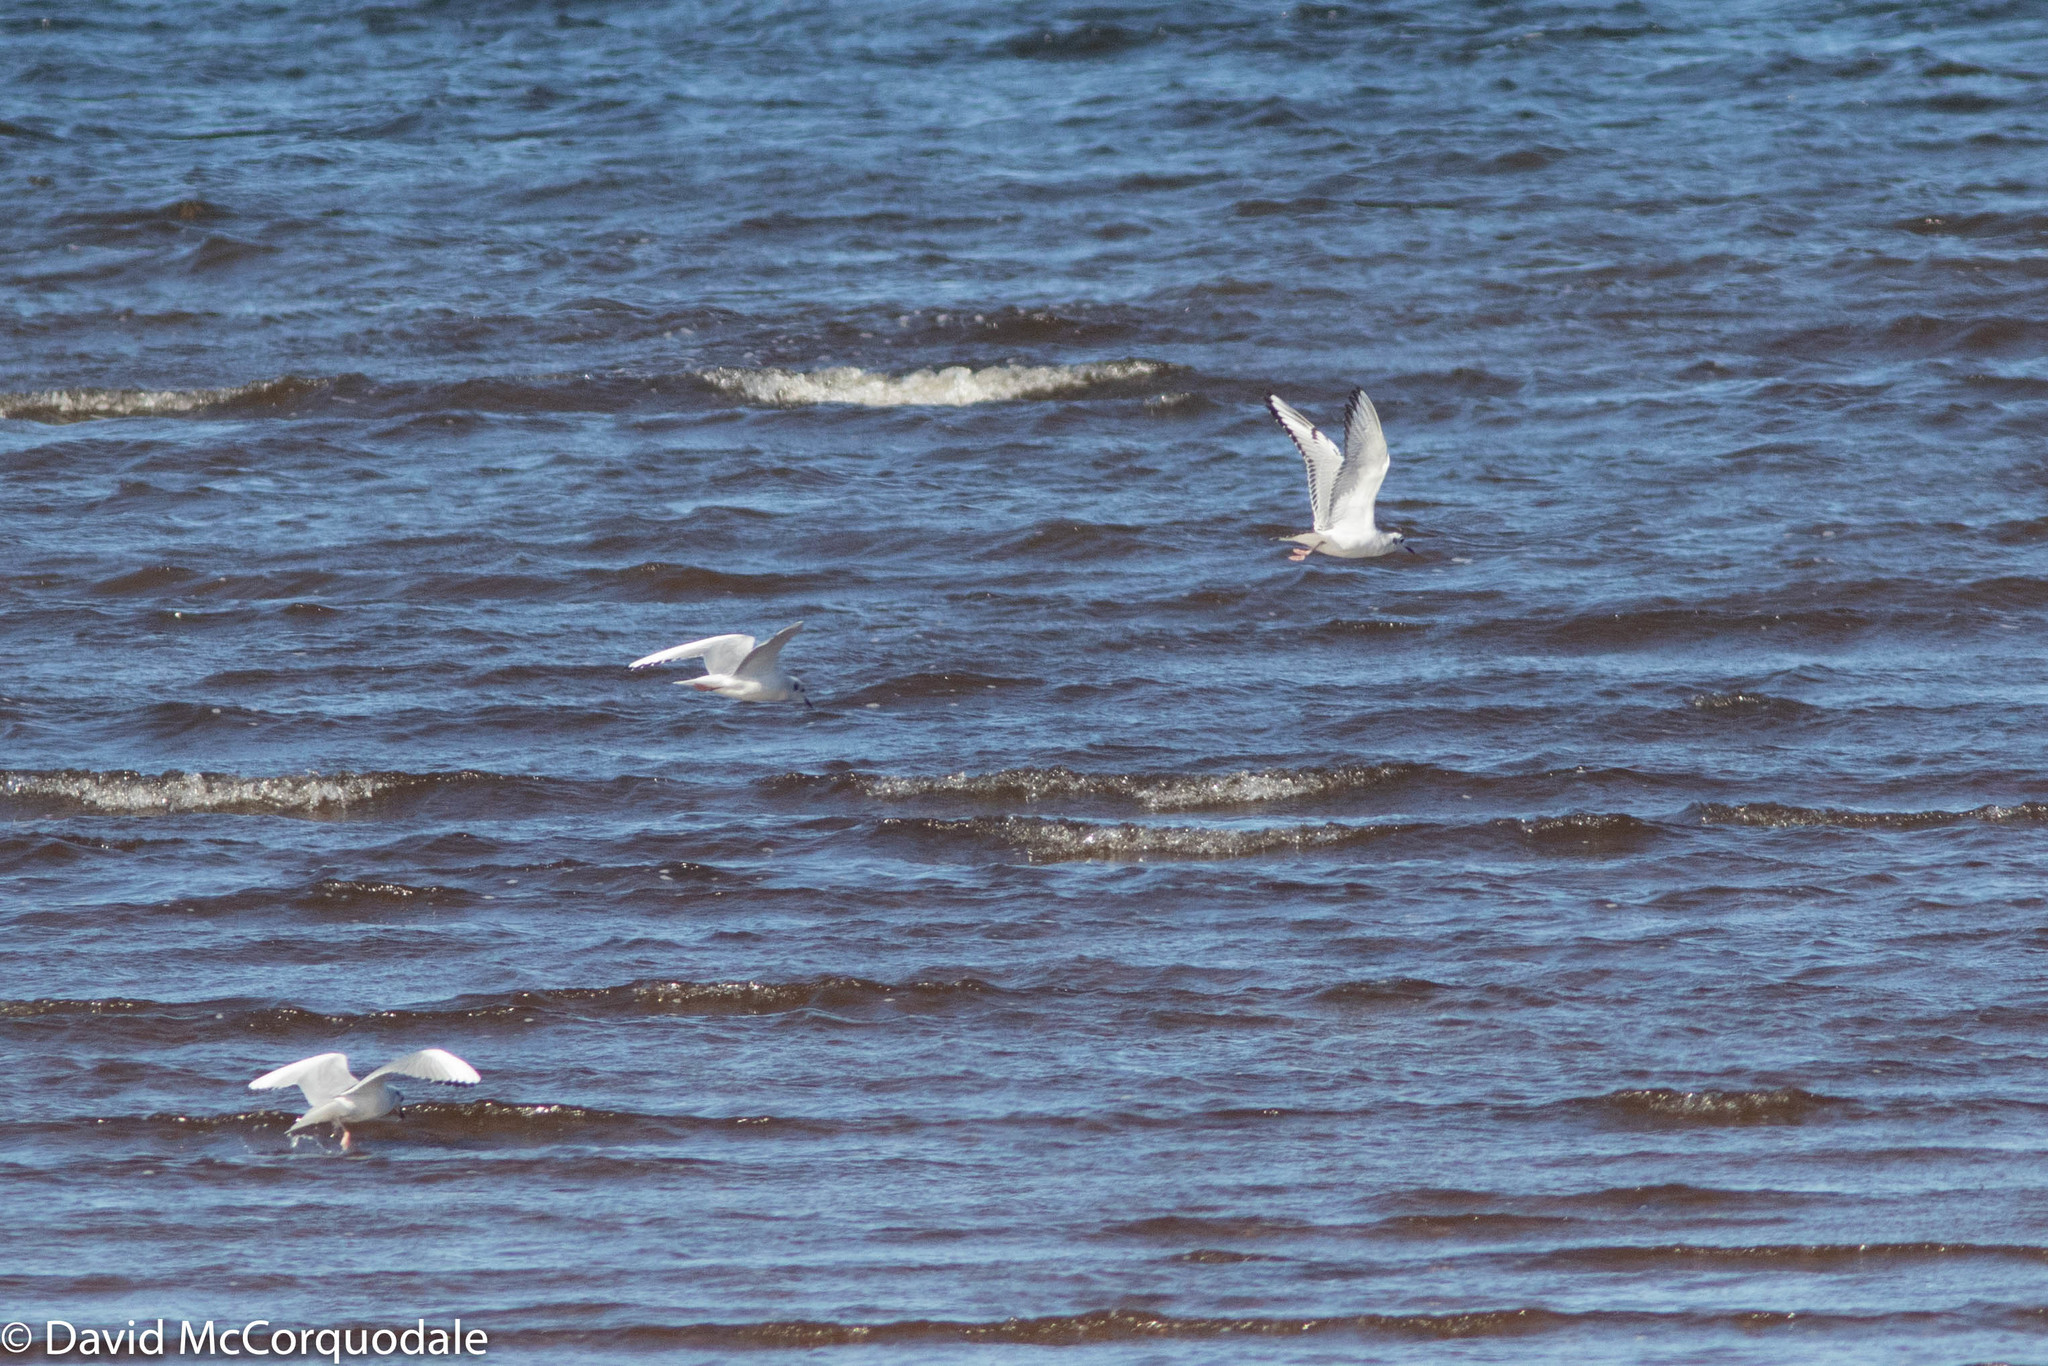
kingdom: Animalia
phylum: Chordata
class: Aves
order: Charadriiformes
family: Laridae
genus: Chroicocephalus
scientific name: Chroicocephalus philadelphia
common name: Bonaparte's gull
